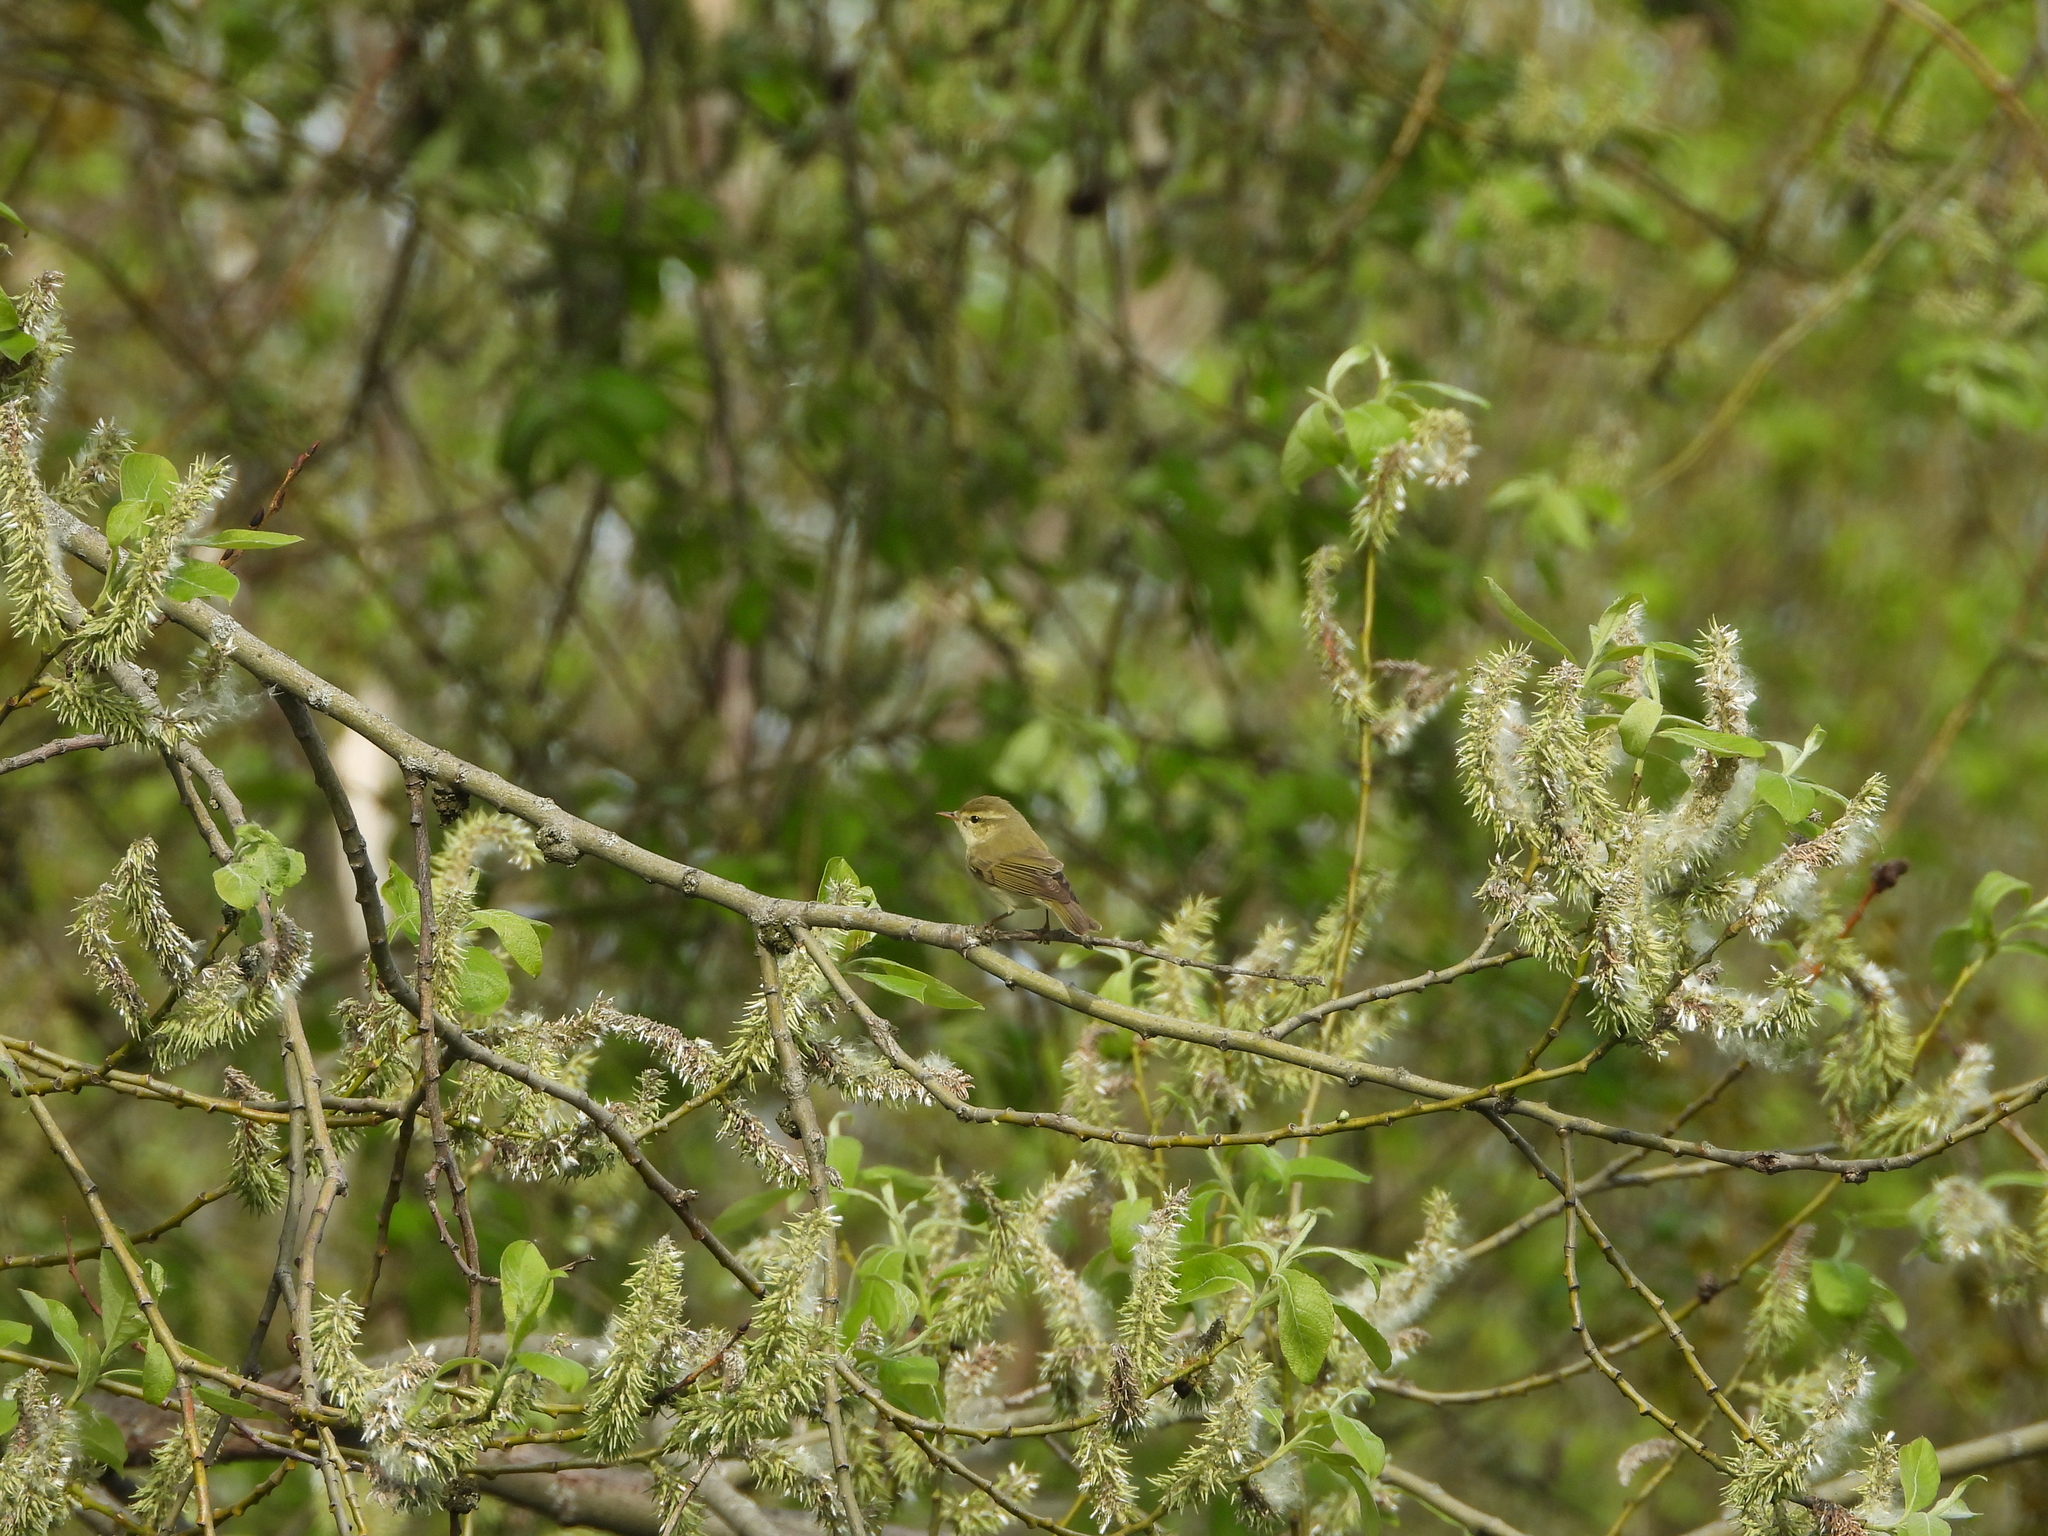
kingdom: Animalia
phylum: Chordata
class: Aves
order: Passeriformes
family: Phylloscopidae
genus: Phylloscopus
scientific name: Phylloscopus trochiloides
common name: Greenish warbler
